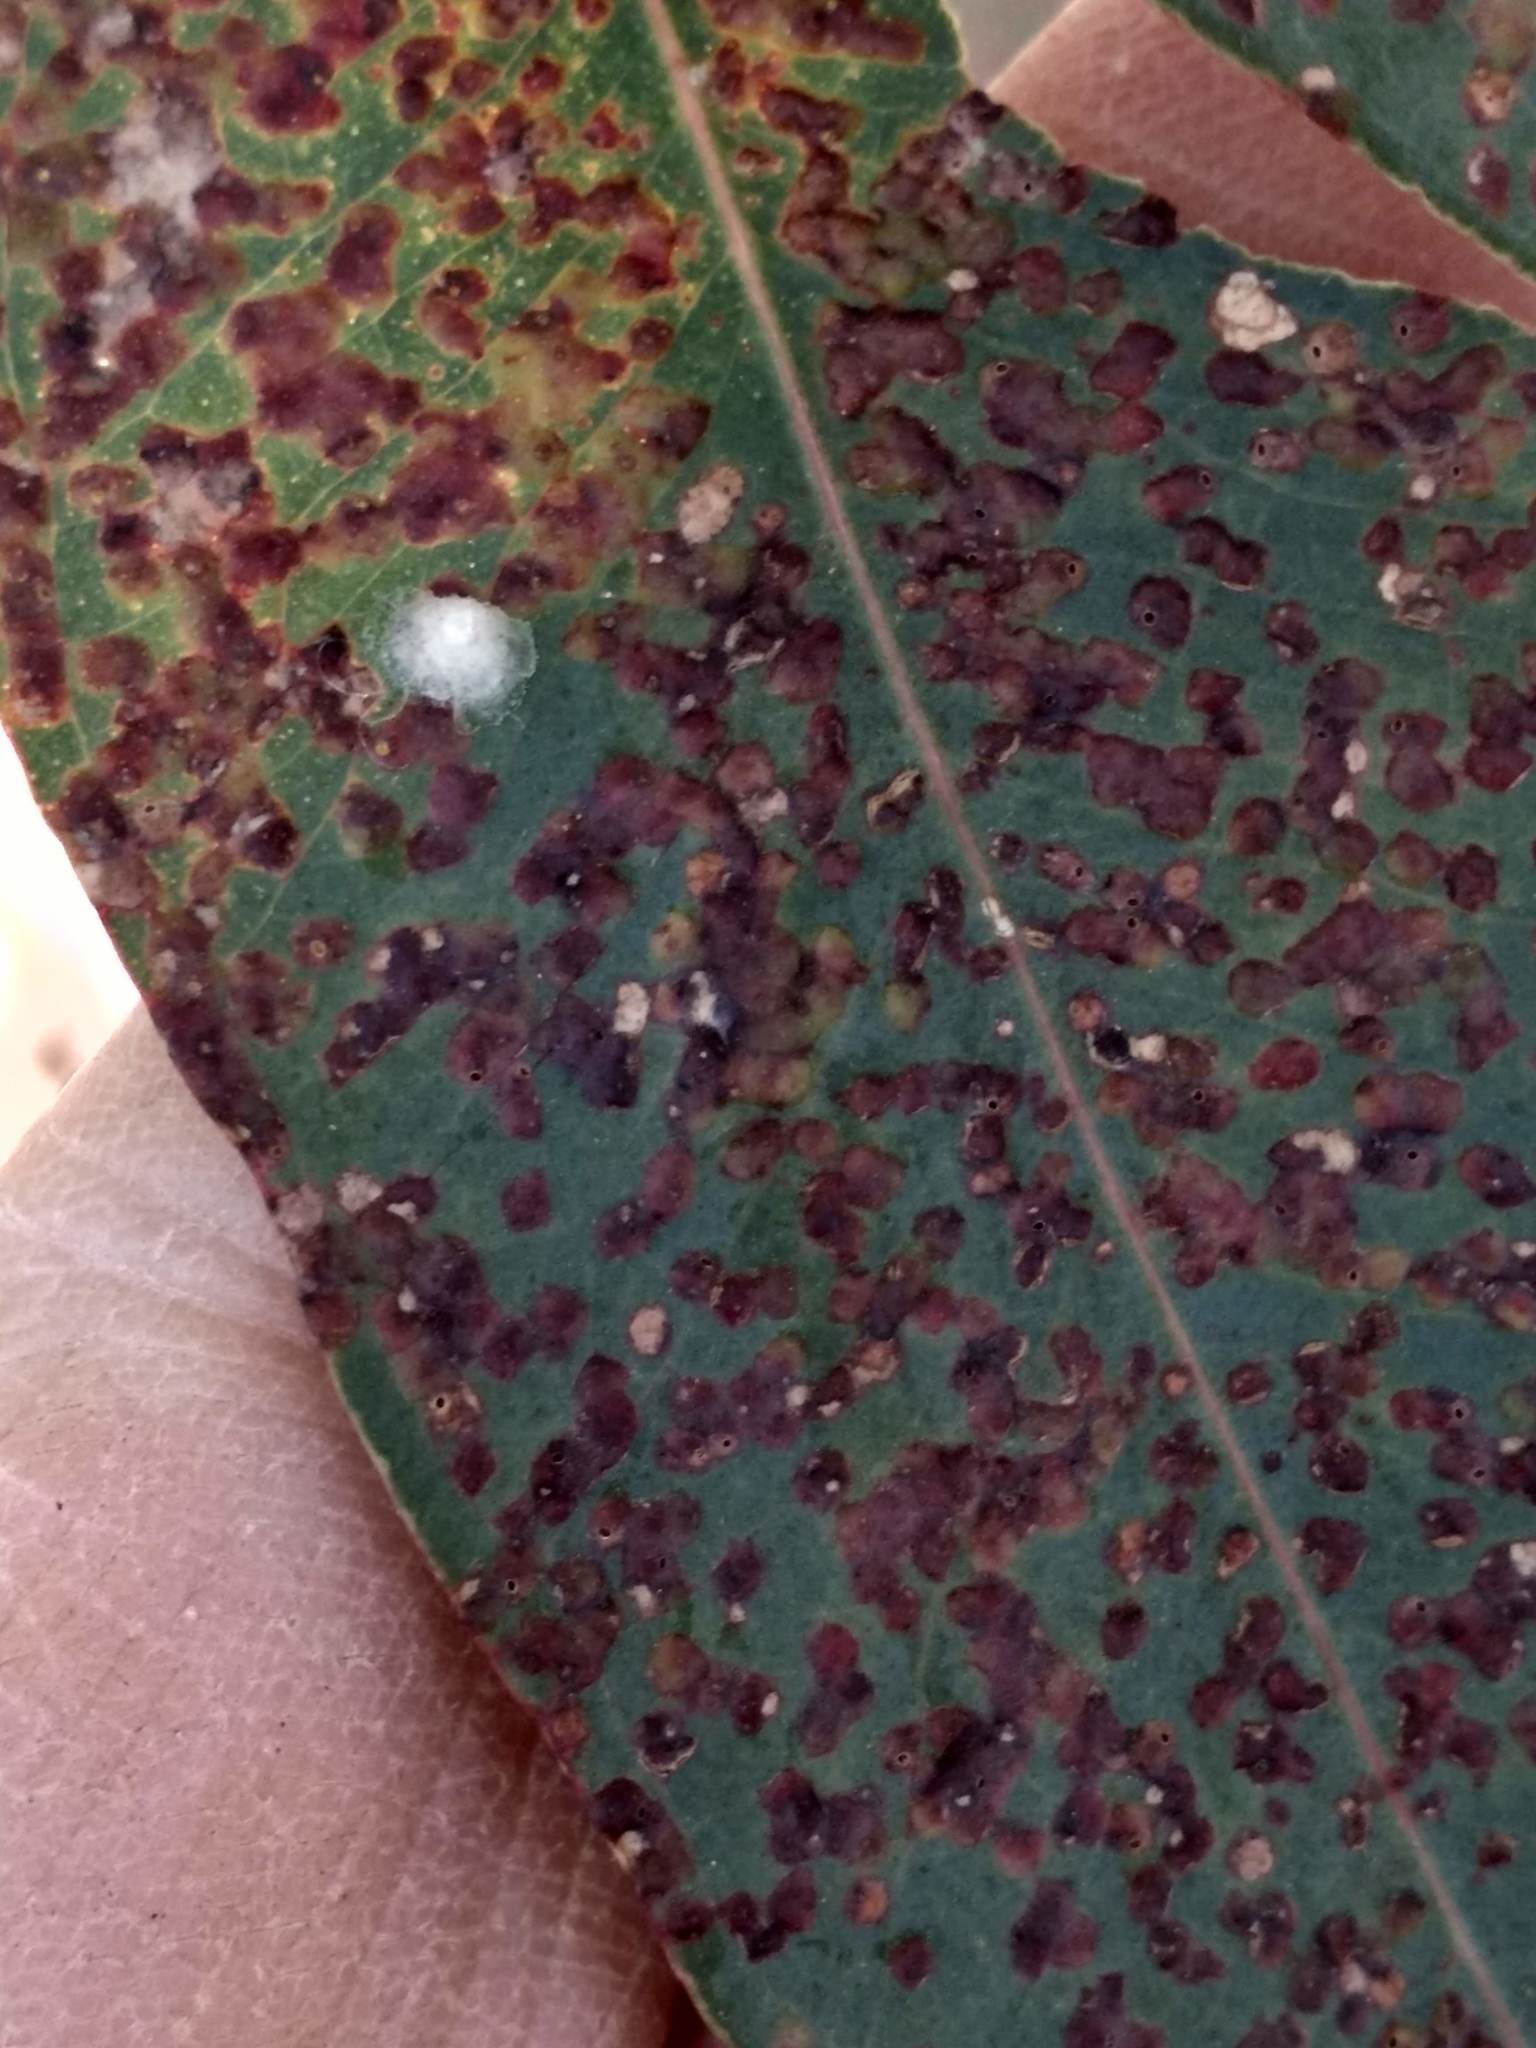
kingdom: Animalia
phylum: Arthropoda
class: Insecta
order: Hemiptera
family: Aphalaridae
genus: Glycaspis
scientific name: Glycaspis brimblecombei
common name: Red gum lerp psyllid
